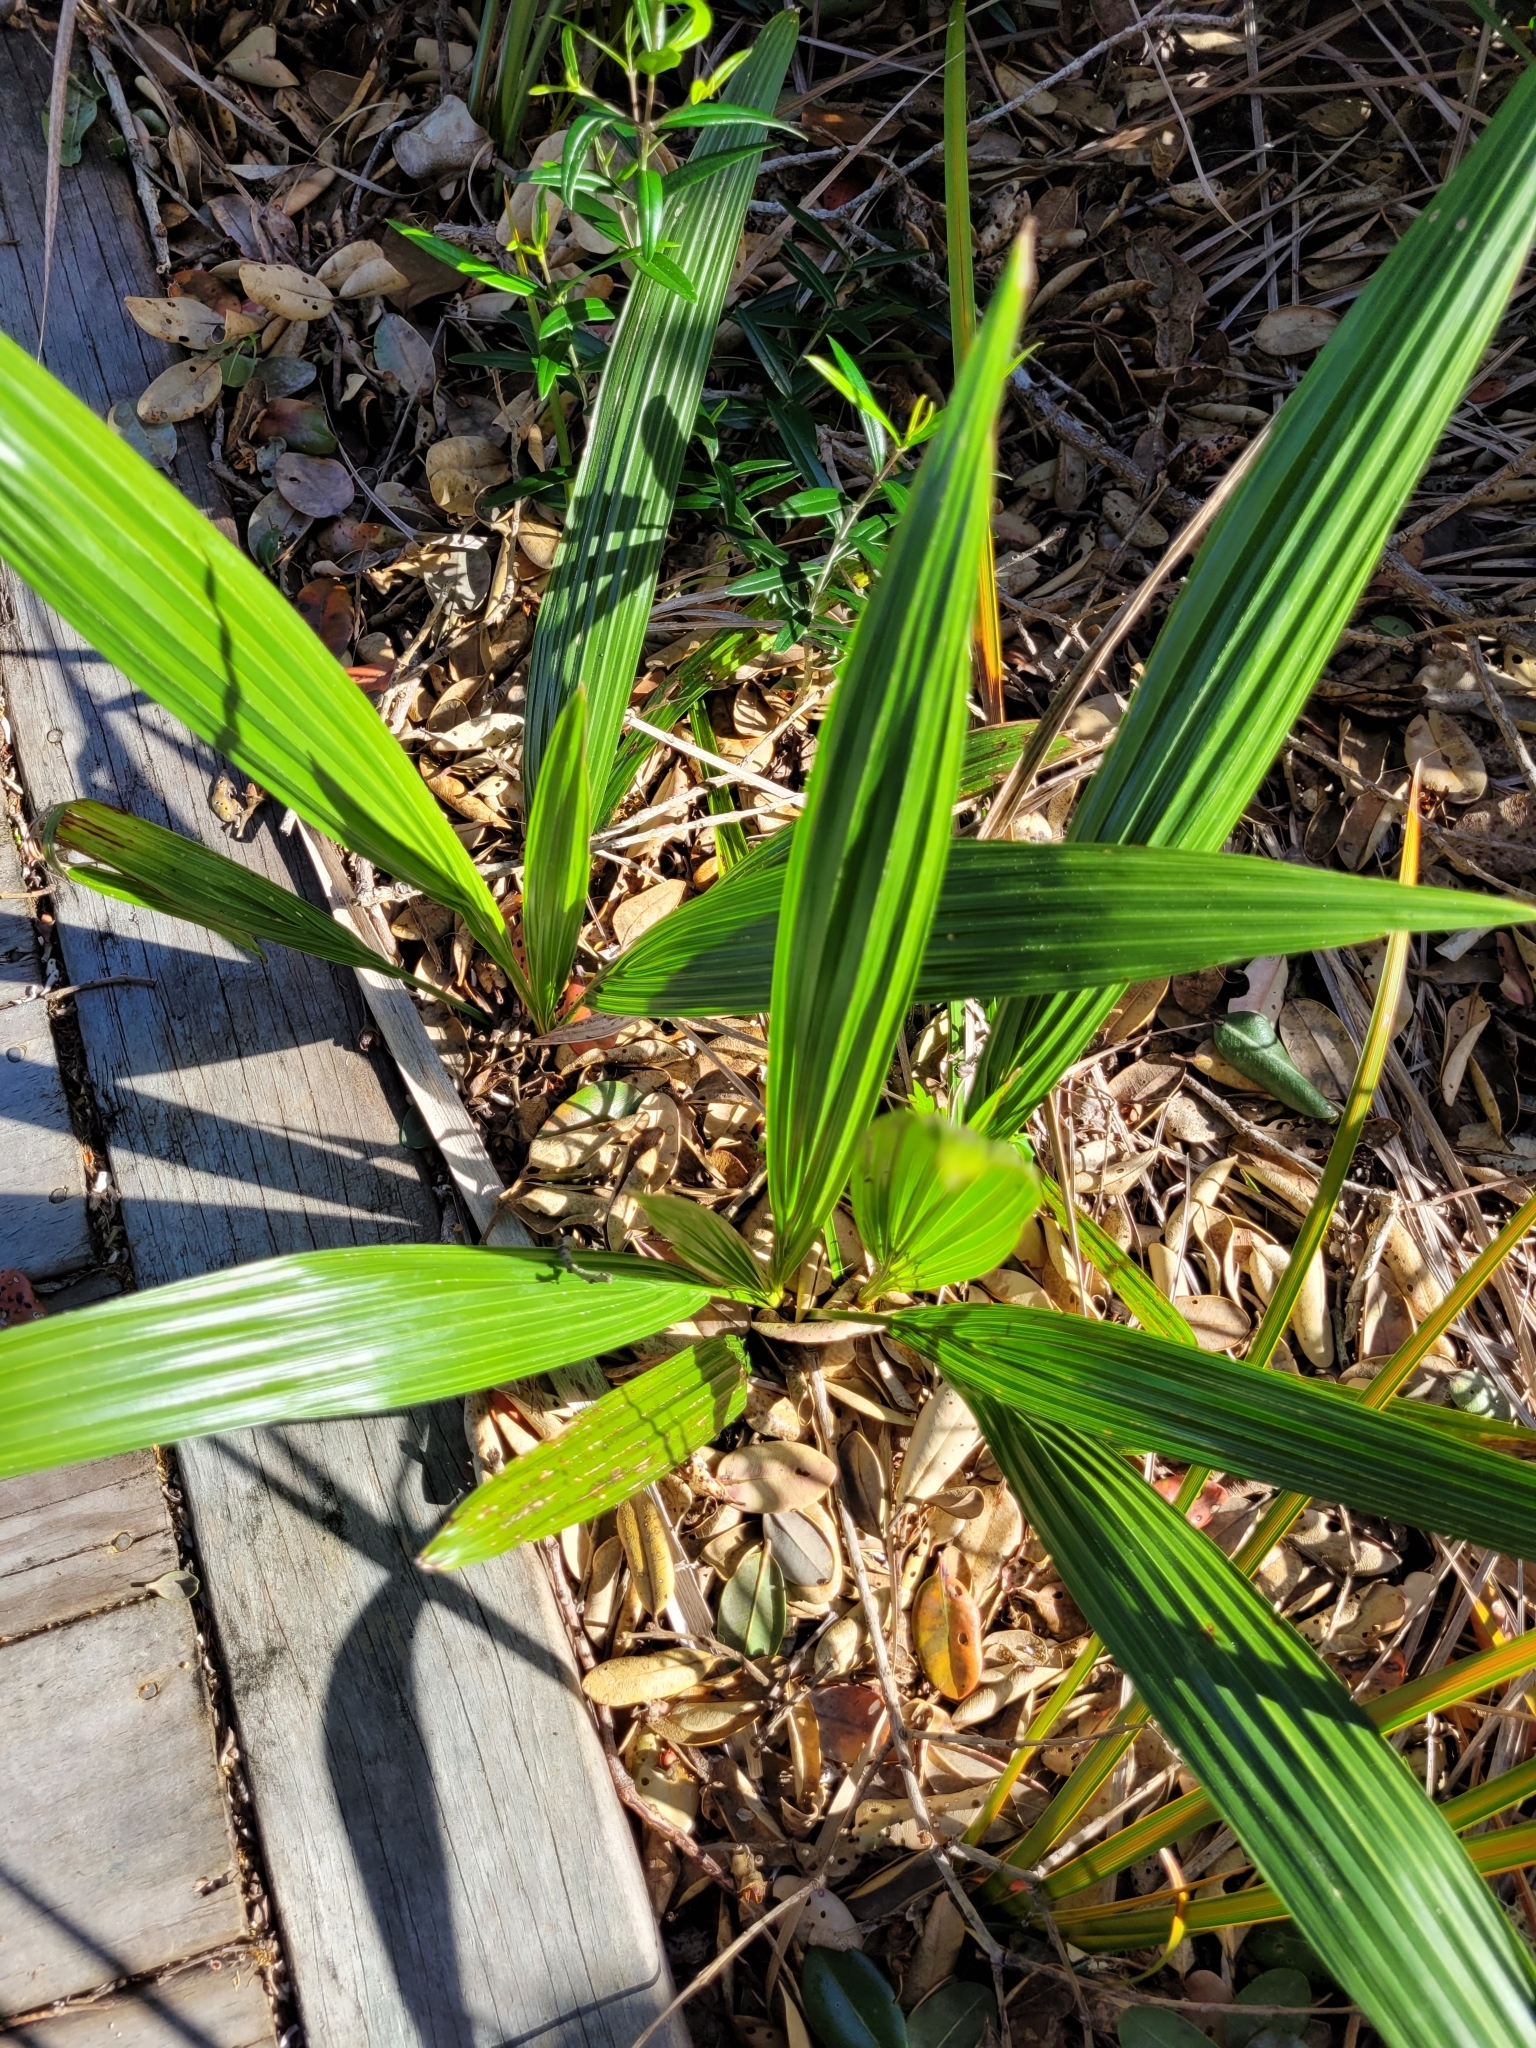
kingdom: Plantae
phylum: Tracheophyta
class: Liliopsida
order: Arecales
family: Arecaceae
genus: Phoenix
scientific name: Phoenix canariensis
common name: Canary island date palm
